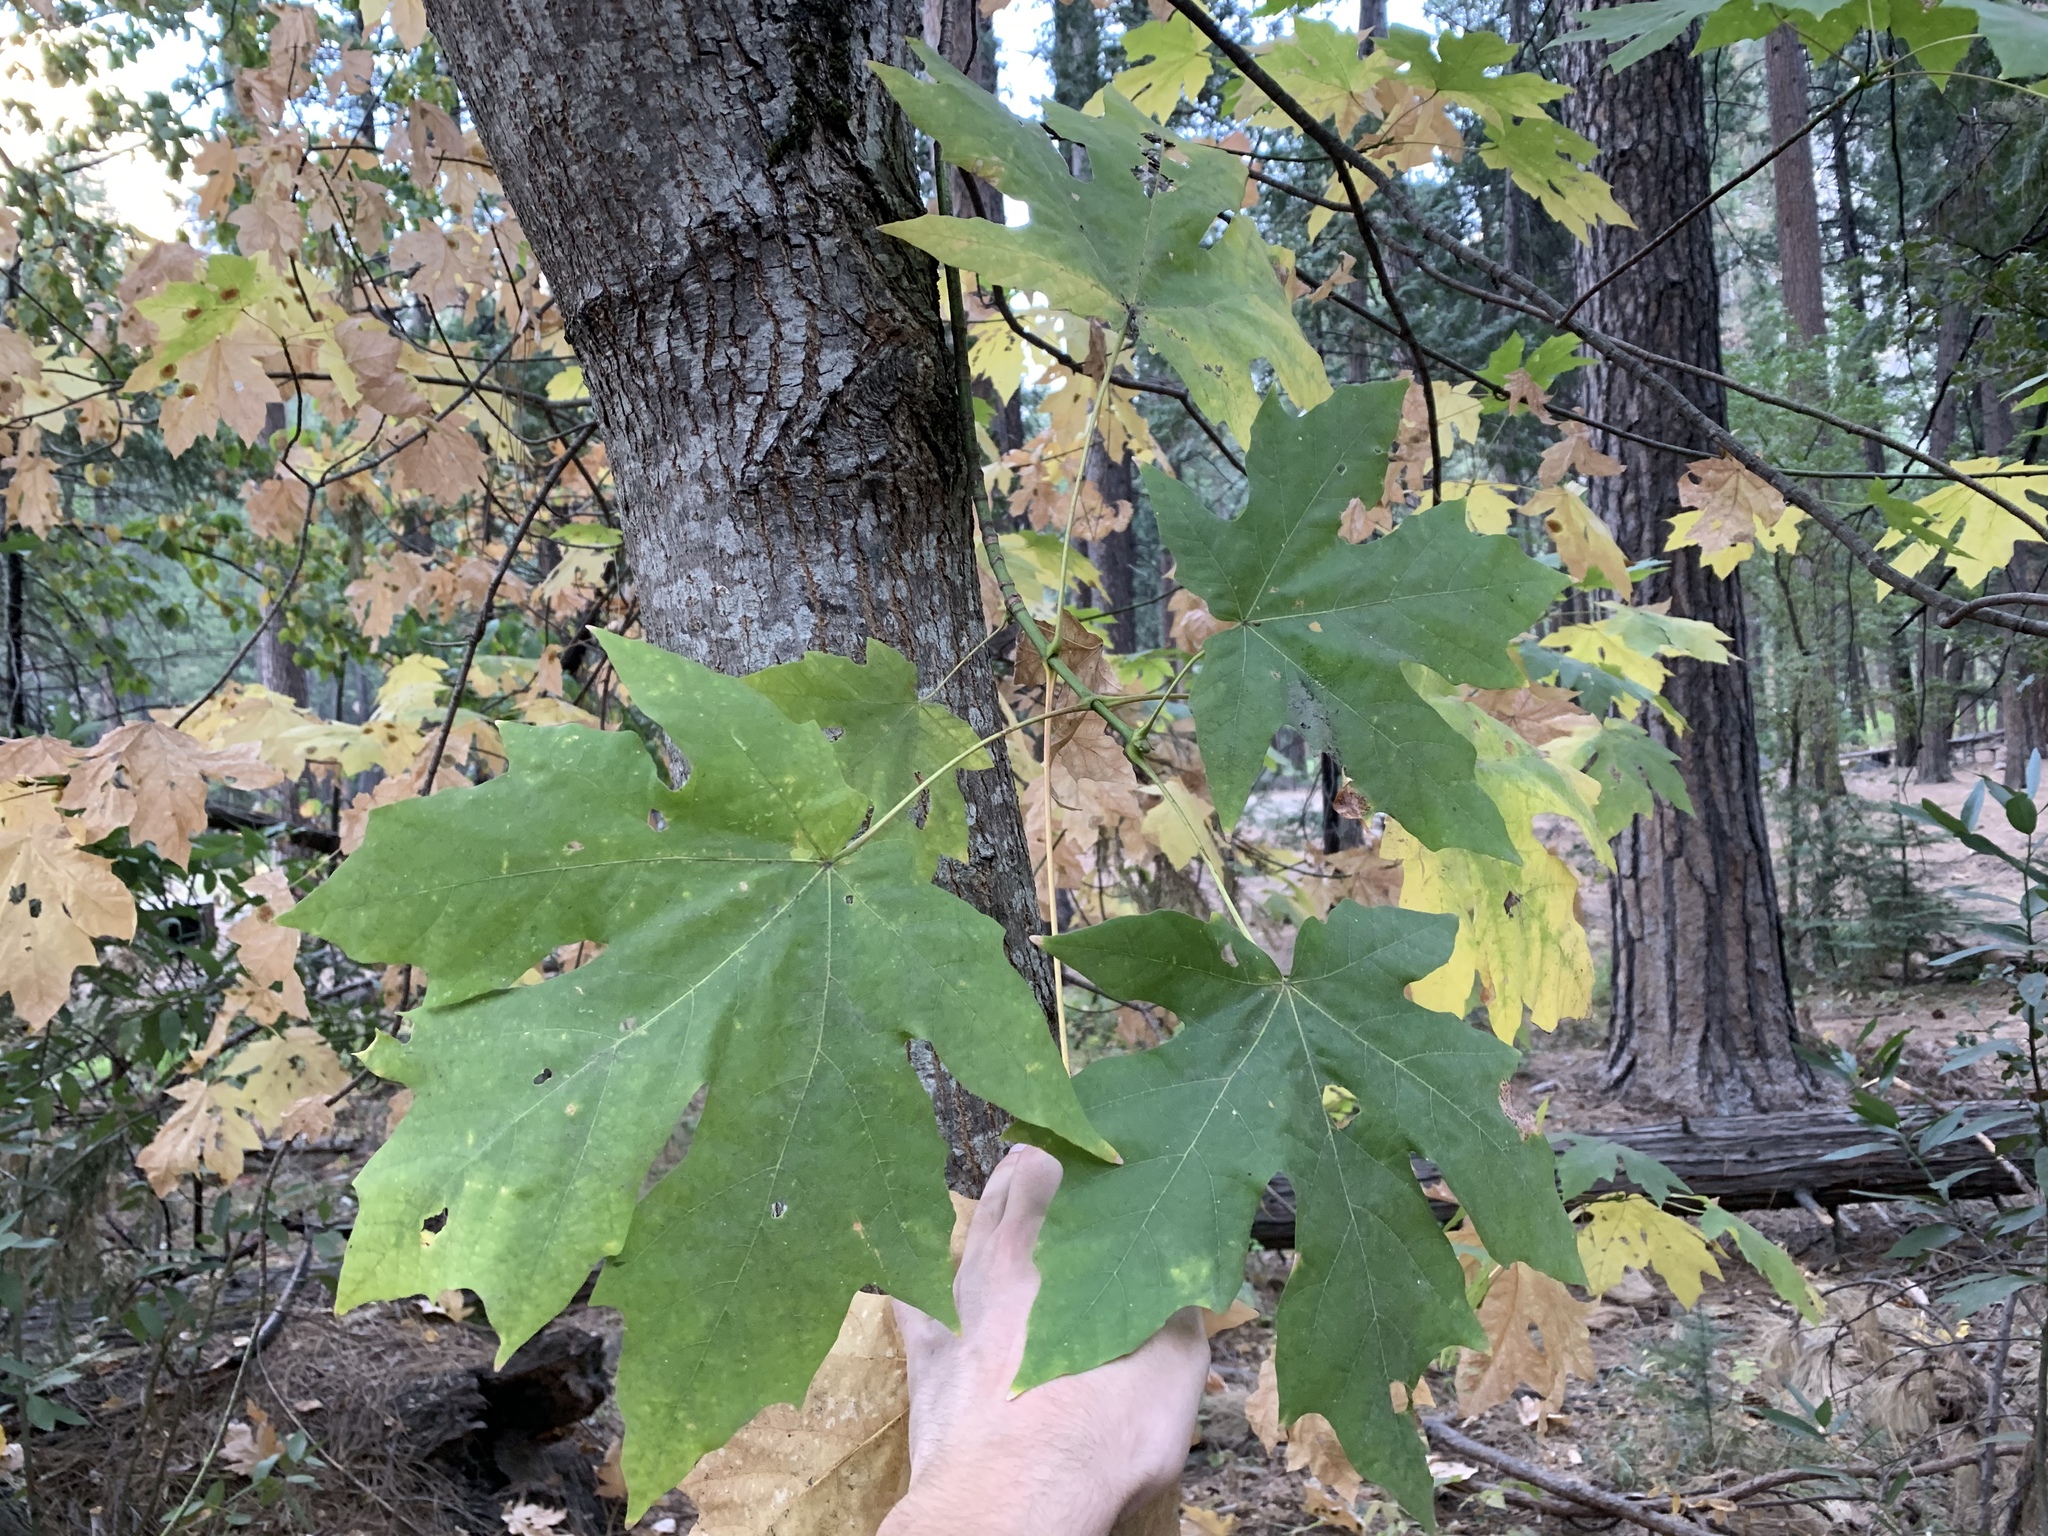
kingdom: Plantae
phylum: Tracheophyta
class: Magnoliopsida
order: Sapindales
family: Sapindaceae
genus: Acer
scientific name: Acer macrophyllum
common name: Oregon maple
